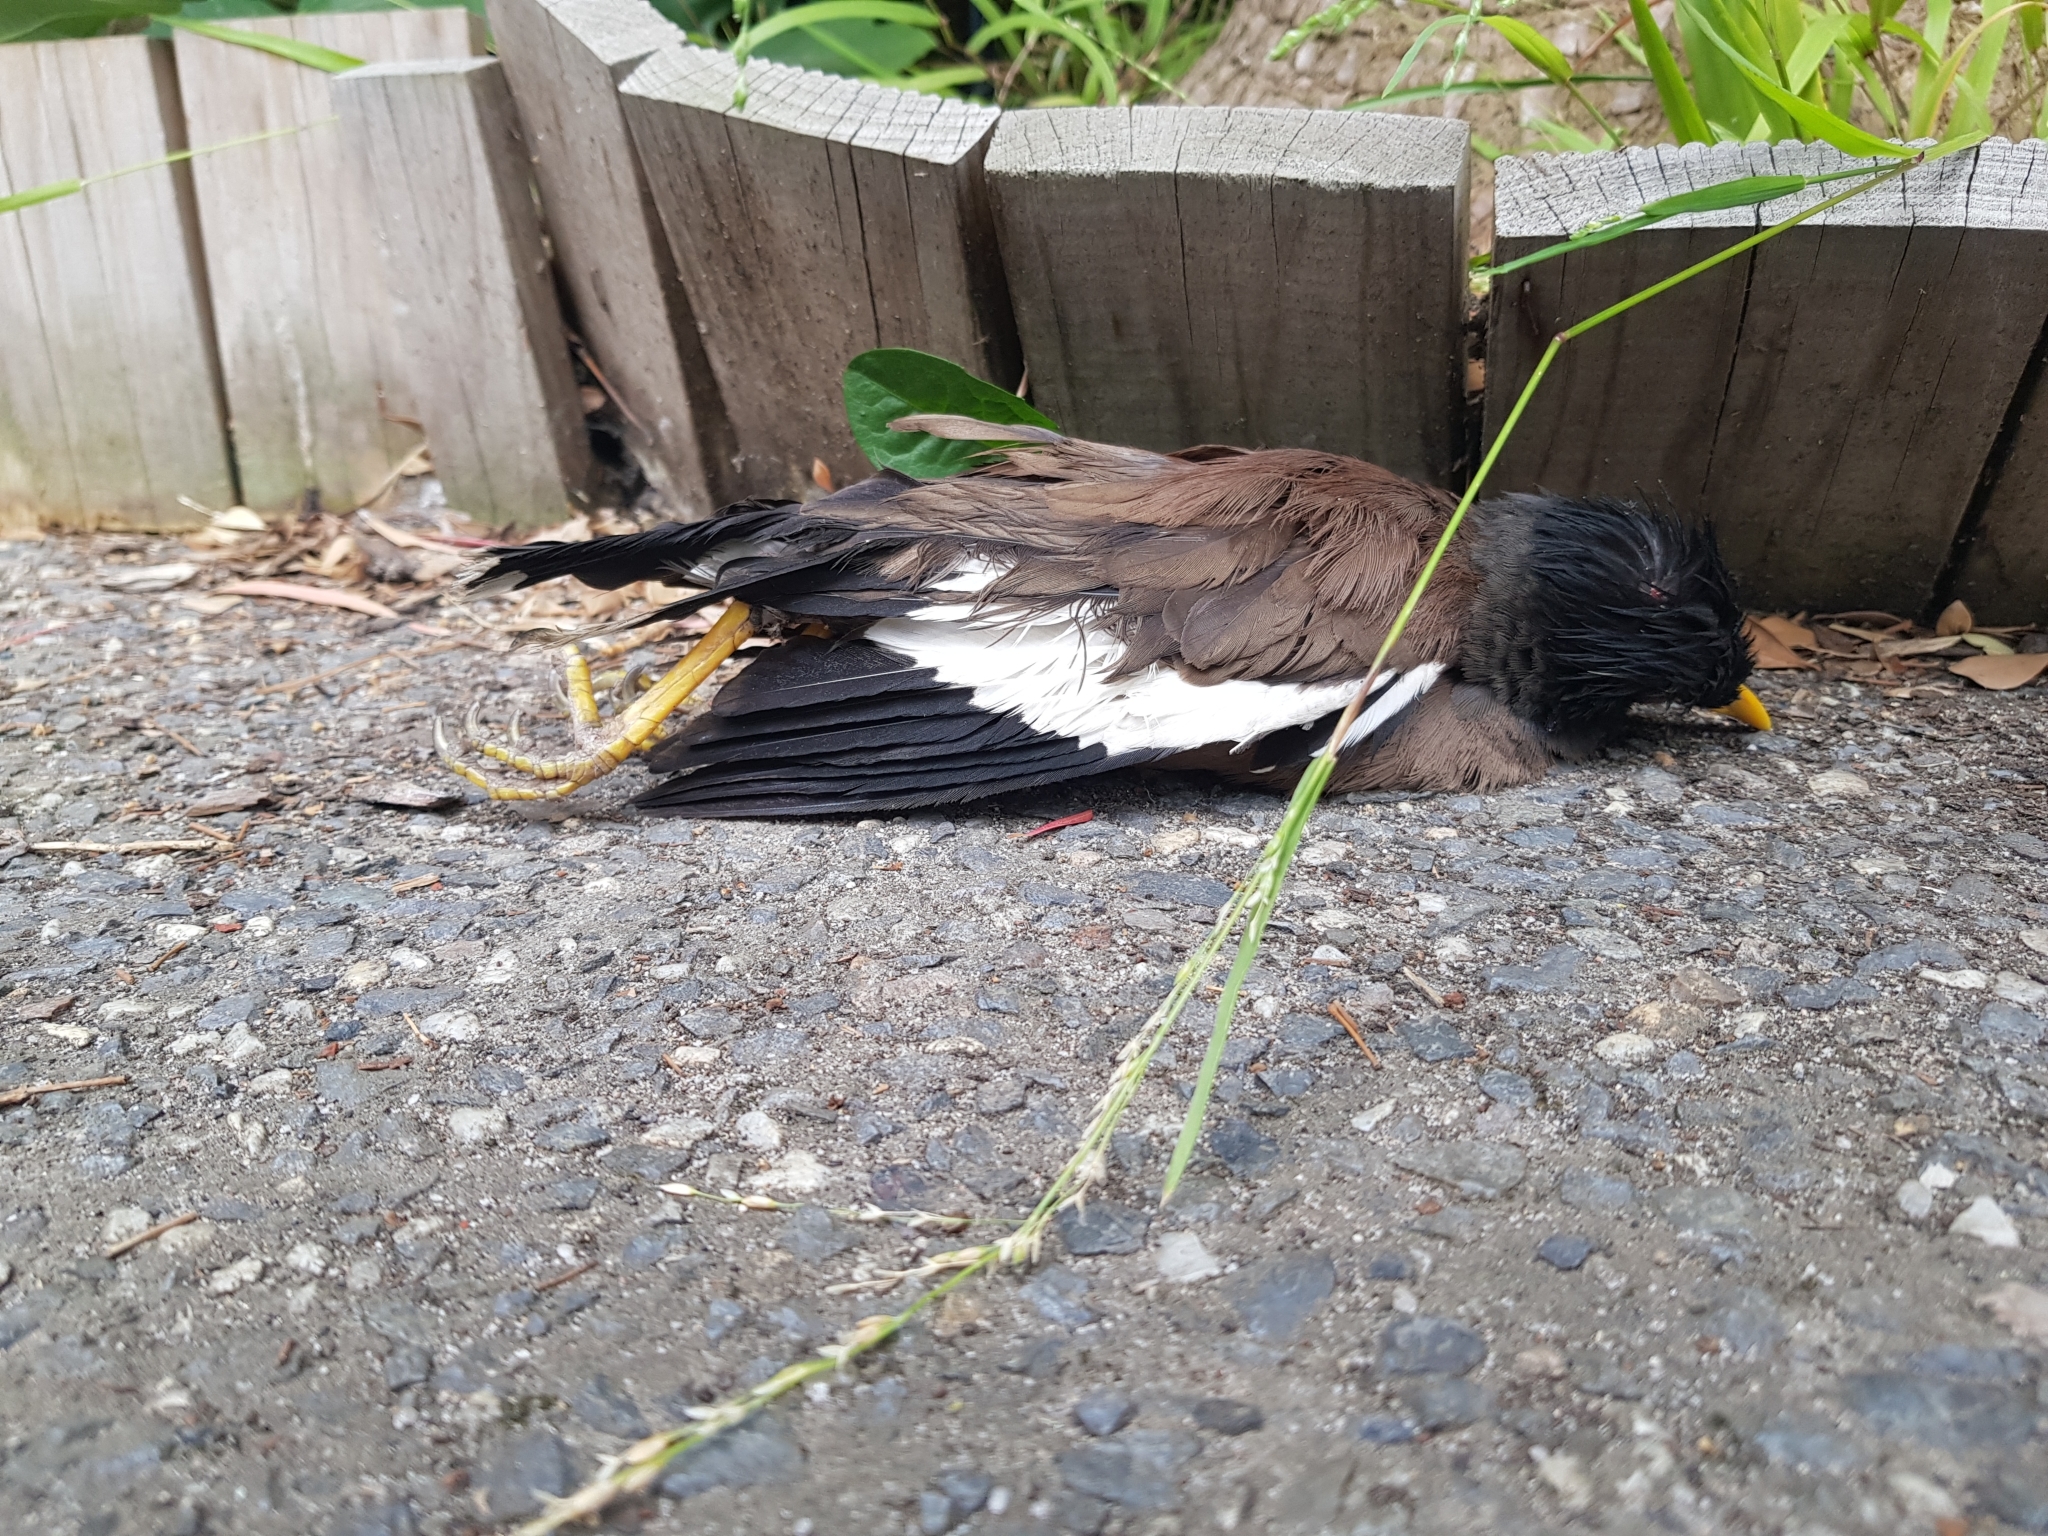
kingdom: Animalia
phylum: Chordata
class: Aves
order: Passeriformes
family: Sturnidae
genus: Acridotheres
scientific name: Acridotheres tristis
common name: Common myna
